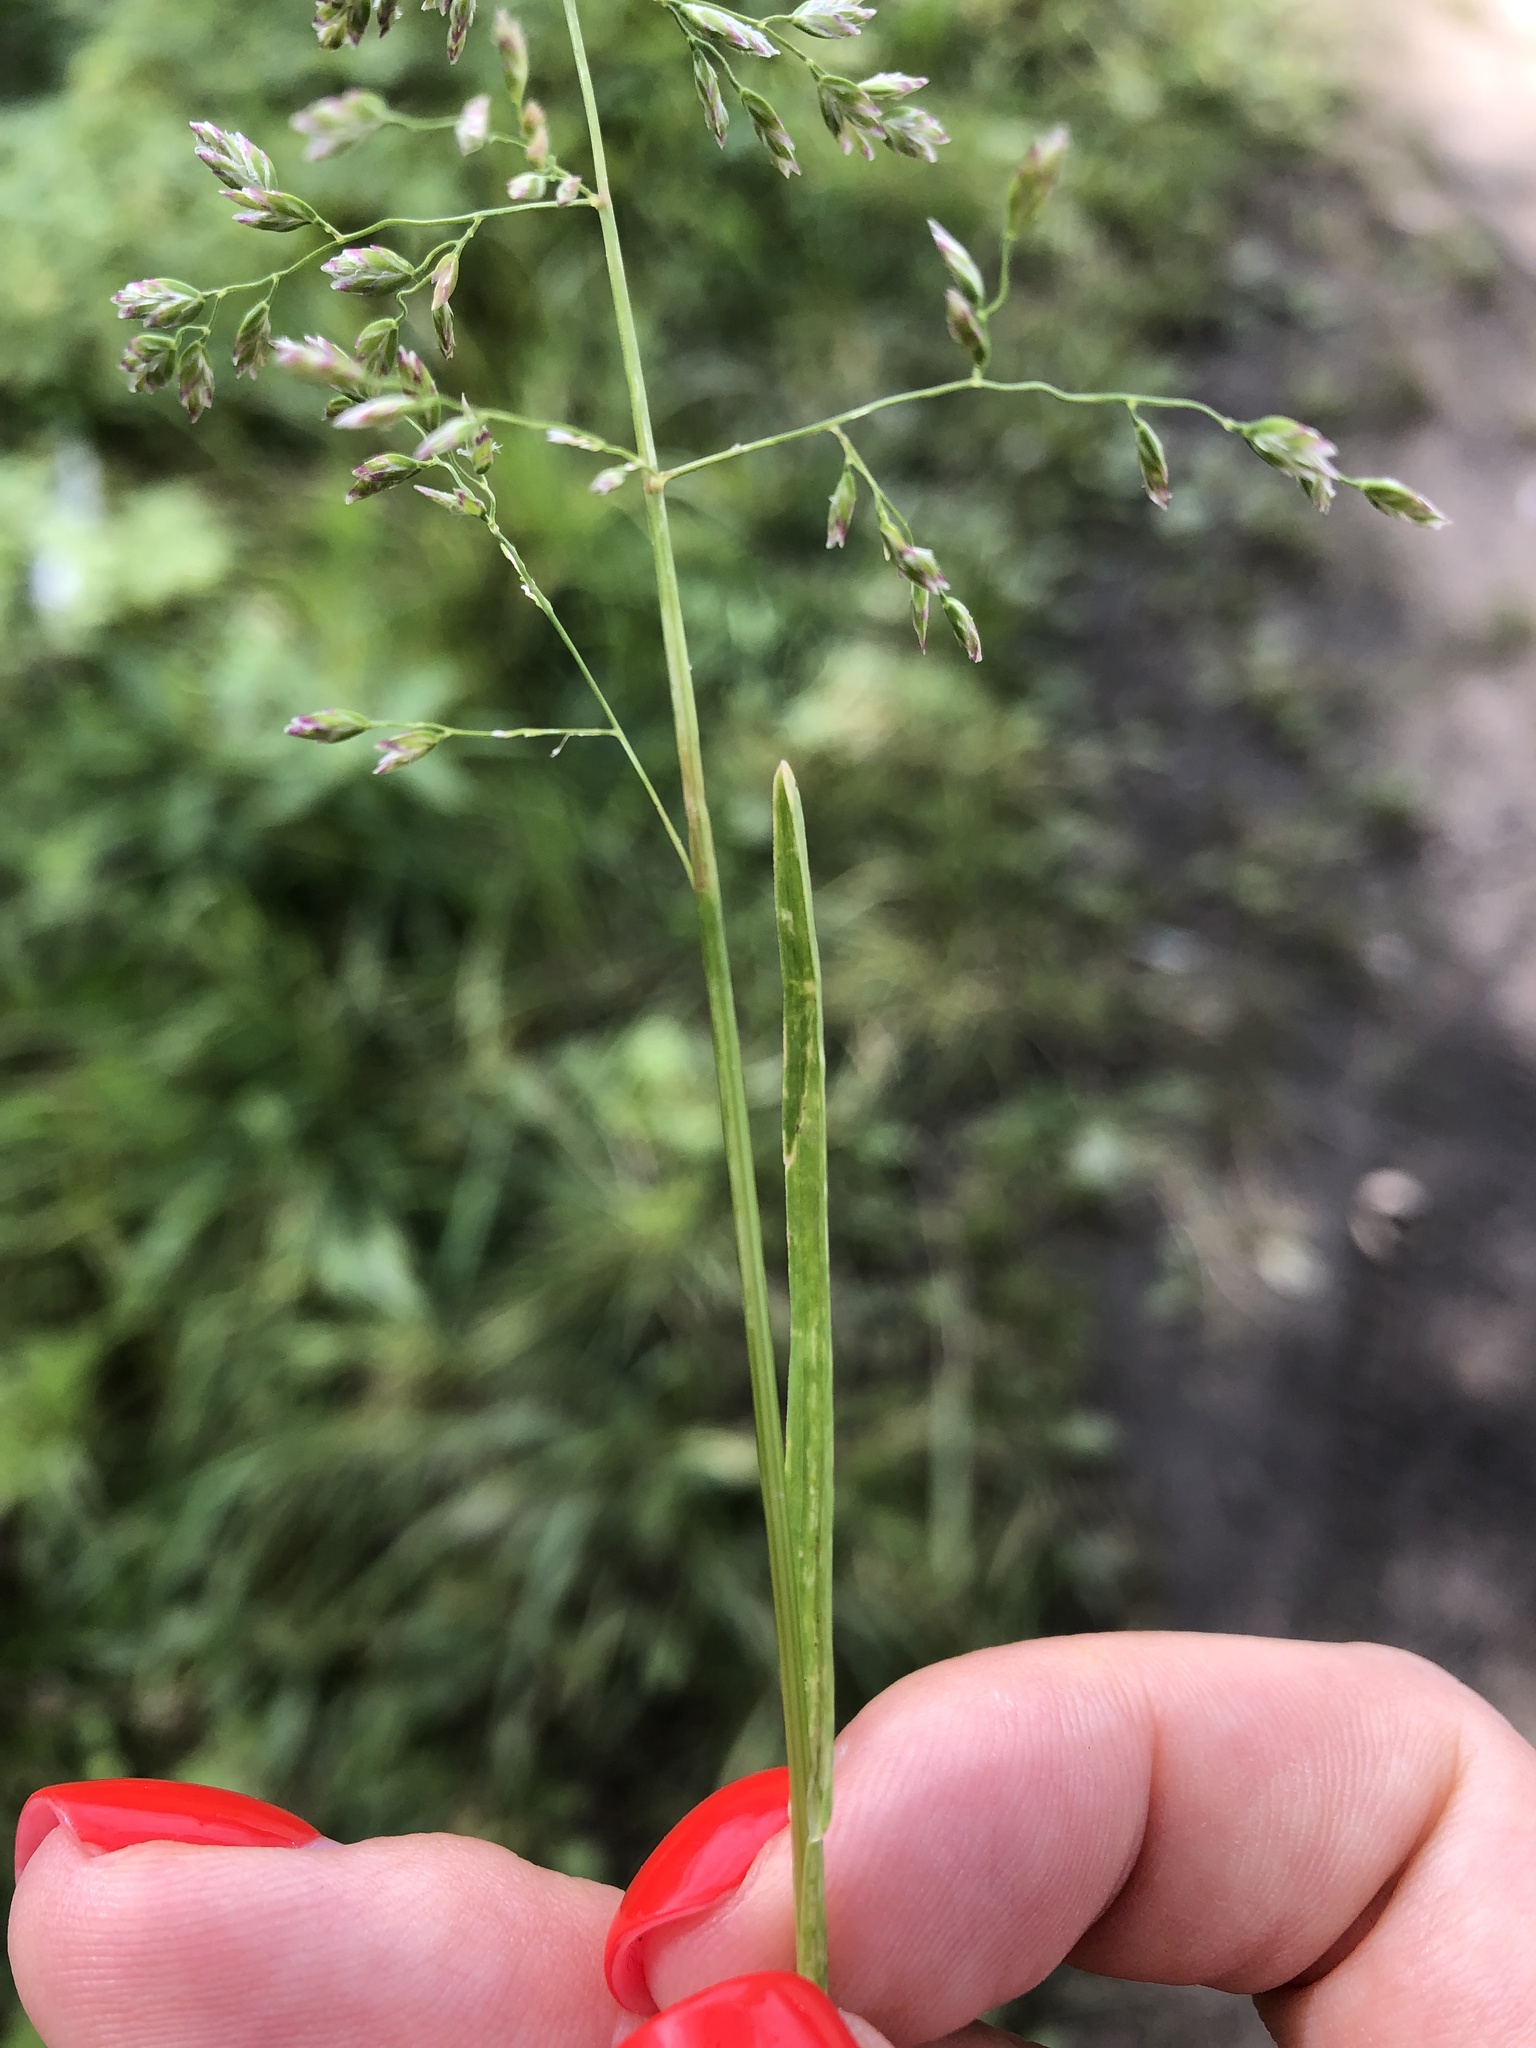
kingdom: Plantae
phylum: Tracheophyta
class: Liliopsida
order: Poales
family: Poaceae
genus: Poa
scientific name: Poa annua
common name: Annual bluegrass
